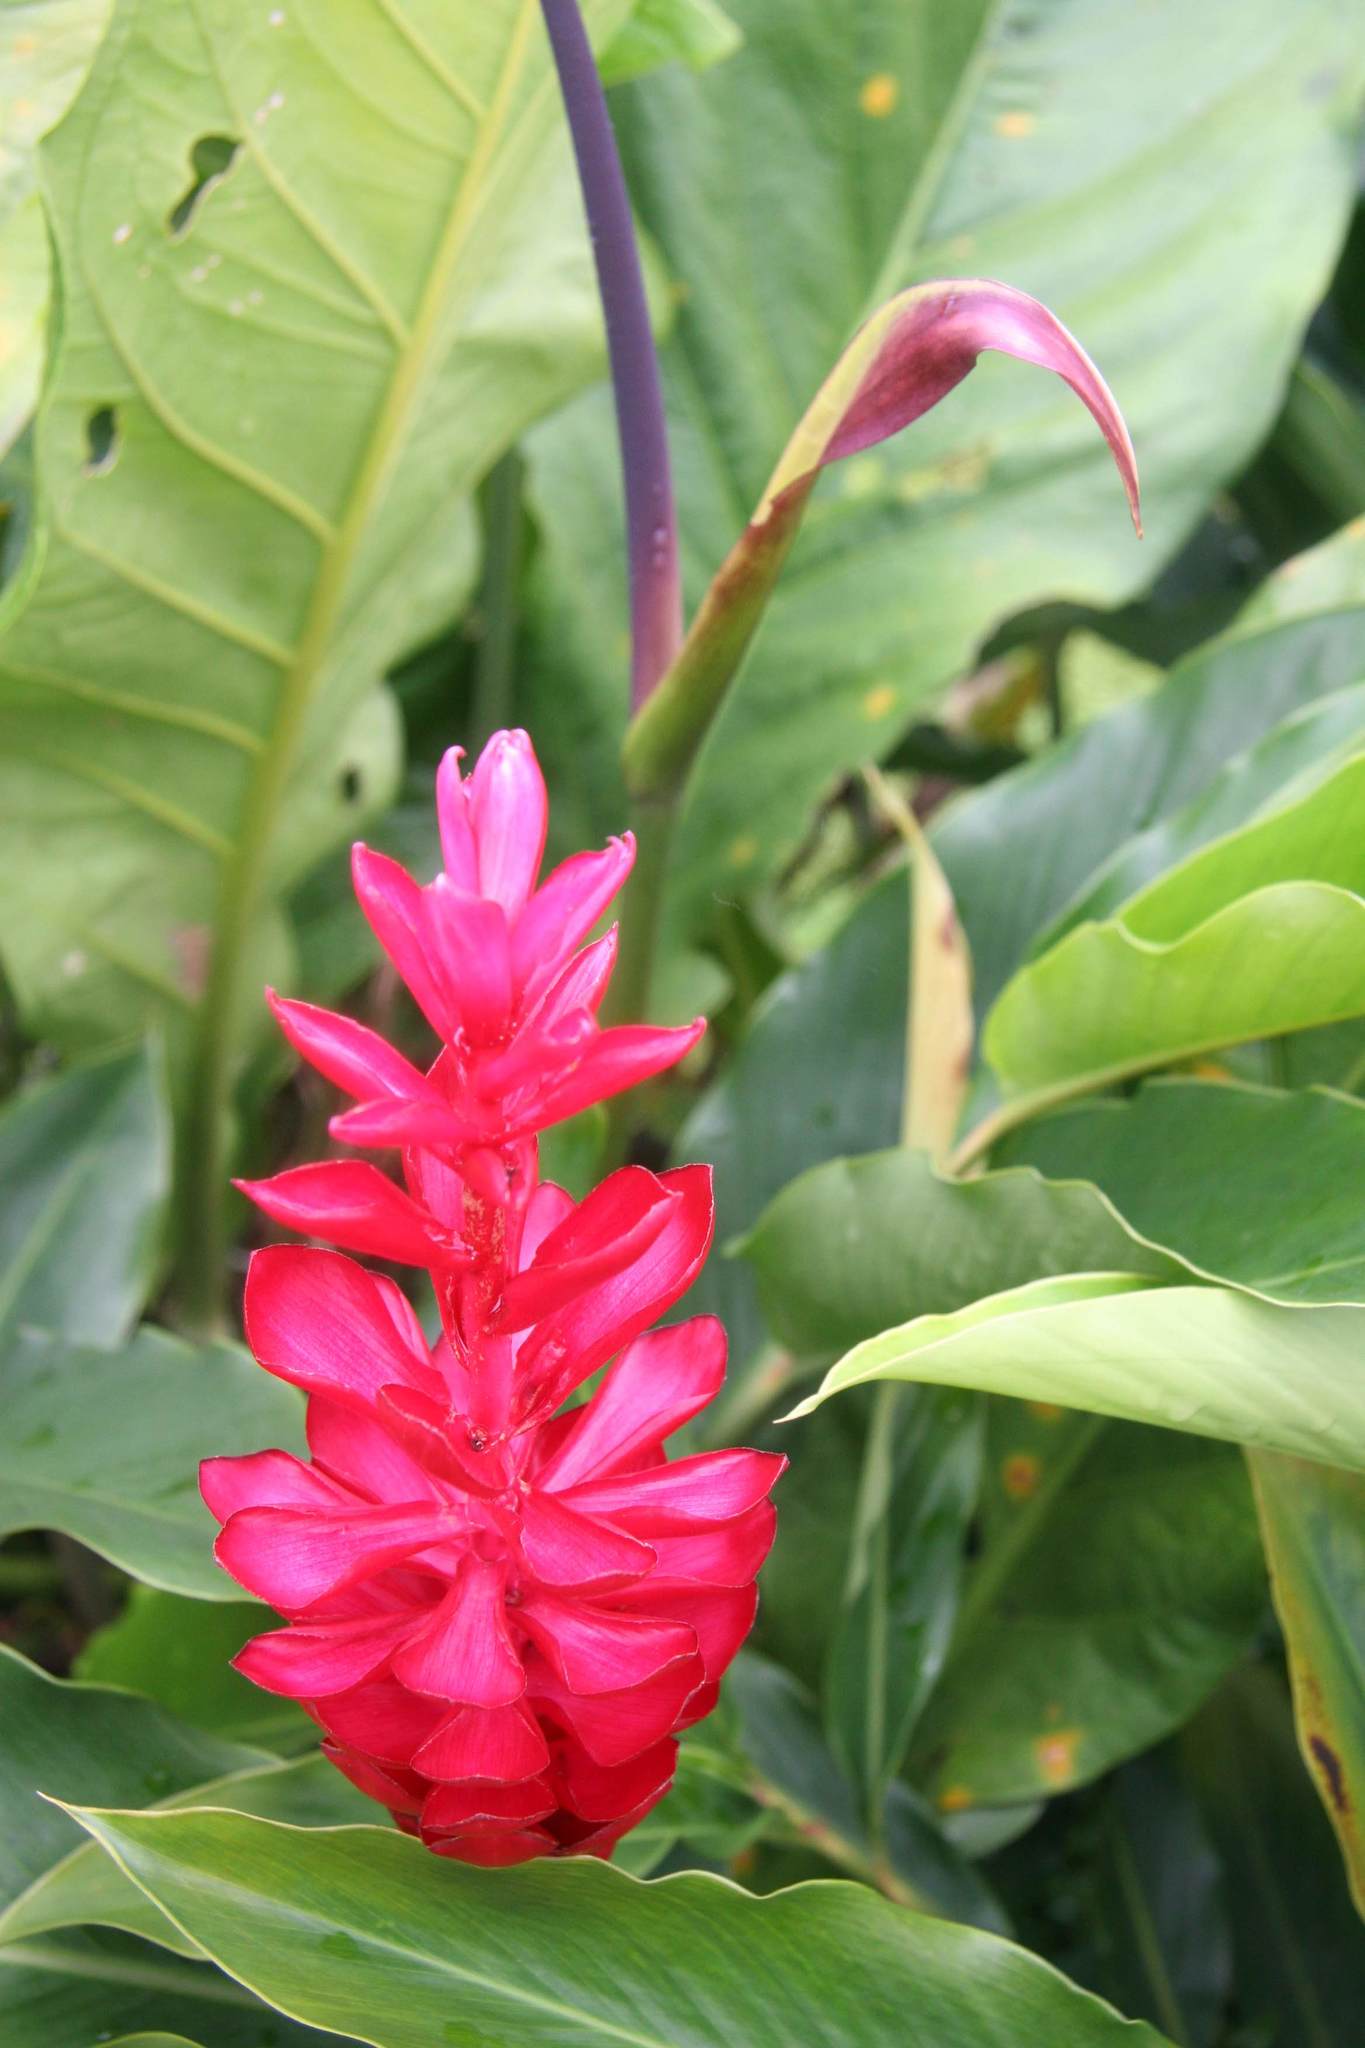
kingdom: Plantae
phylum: Tracheophyta
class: Liliopsida
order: Zingiberales
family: Zingiberaceae
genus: Alpinia
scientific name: Alpinia purpurata
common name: Red ginger
